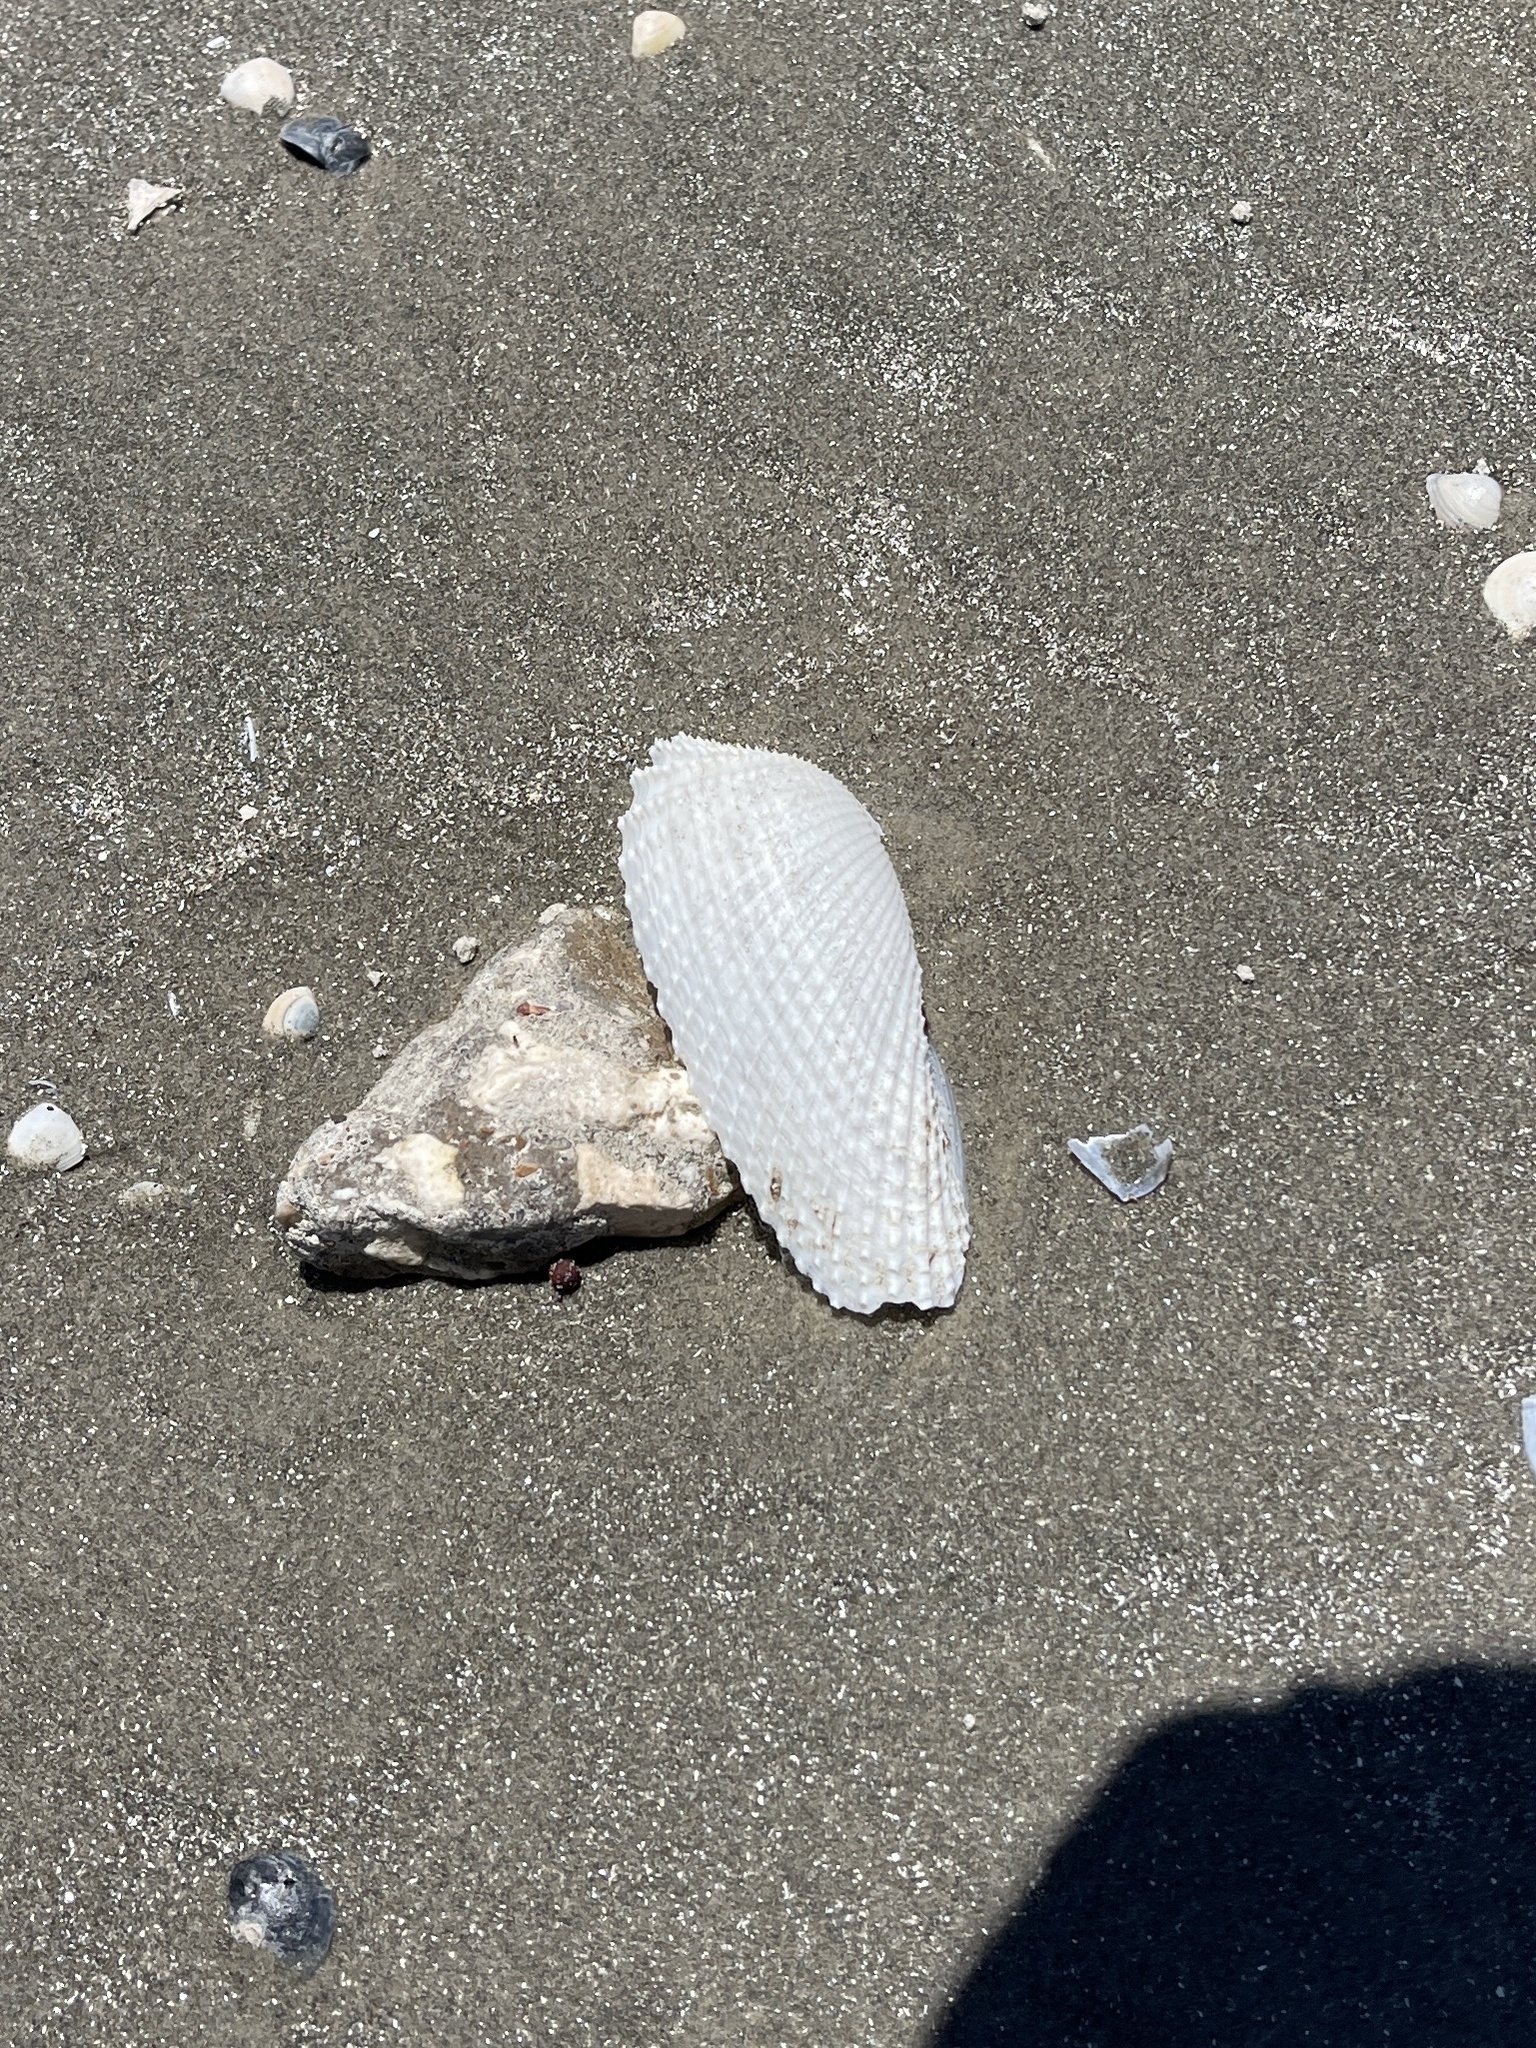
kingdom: Animalia
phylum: Mollusca
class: Bivalvia
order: Myida
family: Pholadidae
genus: Cyrtopleura
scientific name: Cyrtopleura costata
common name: Angel wing
